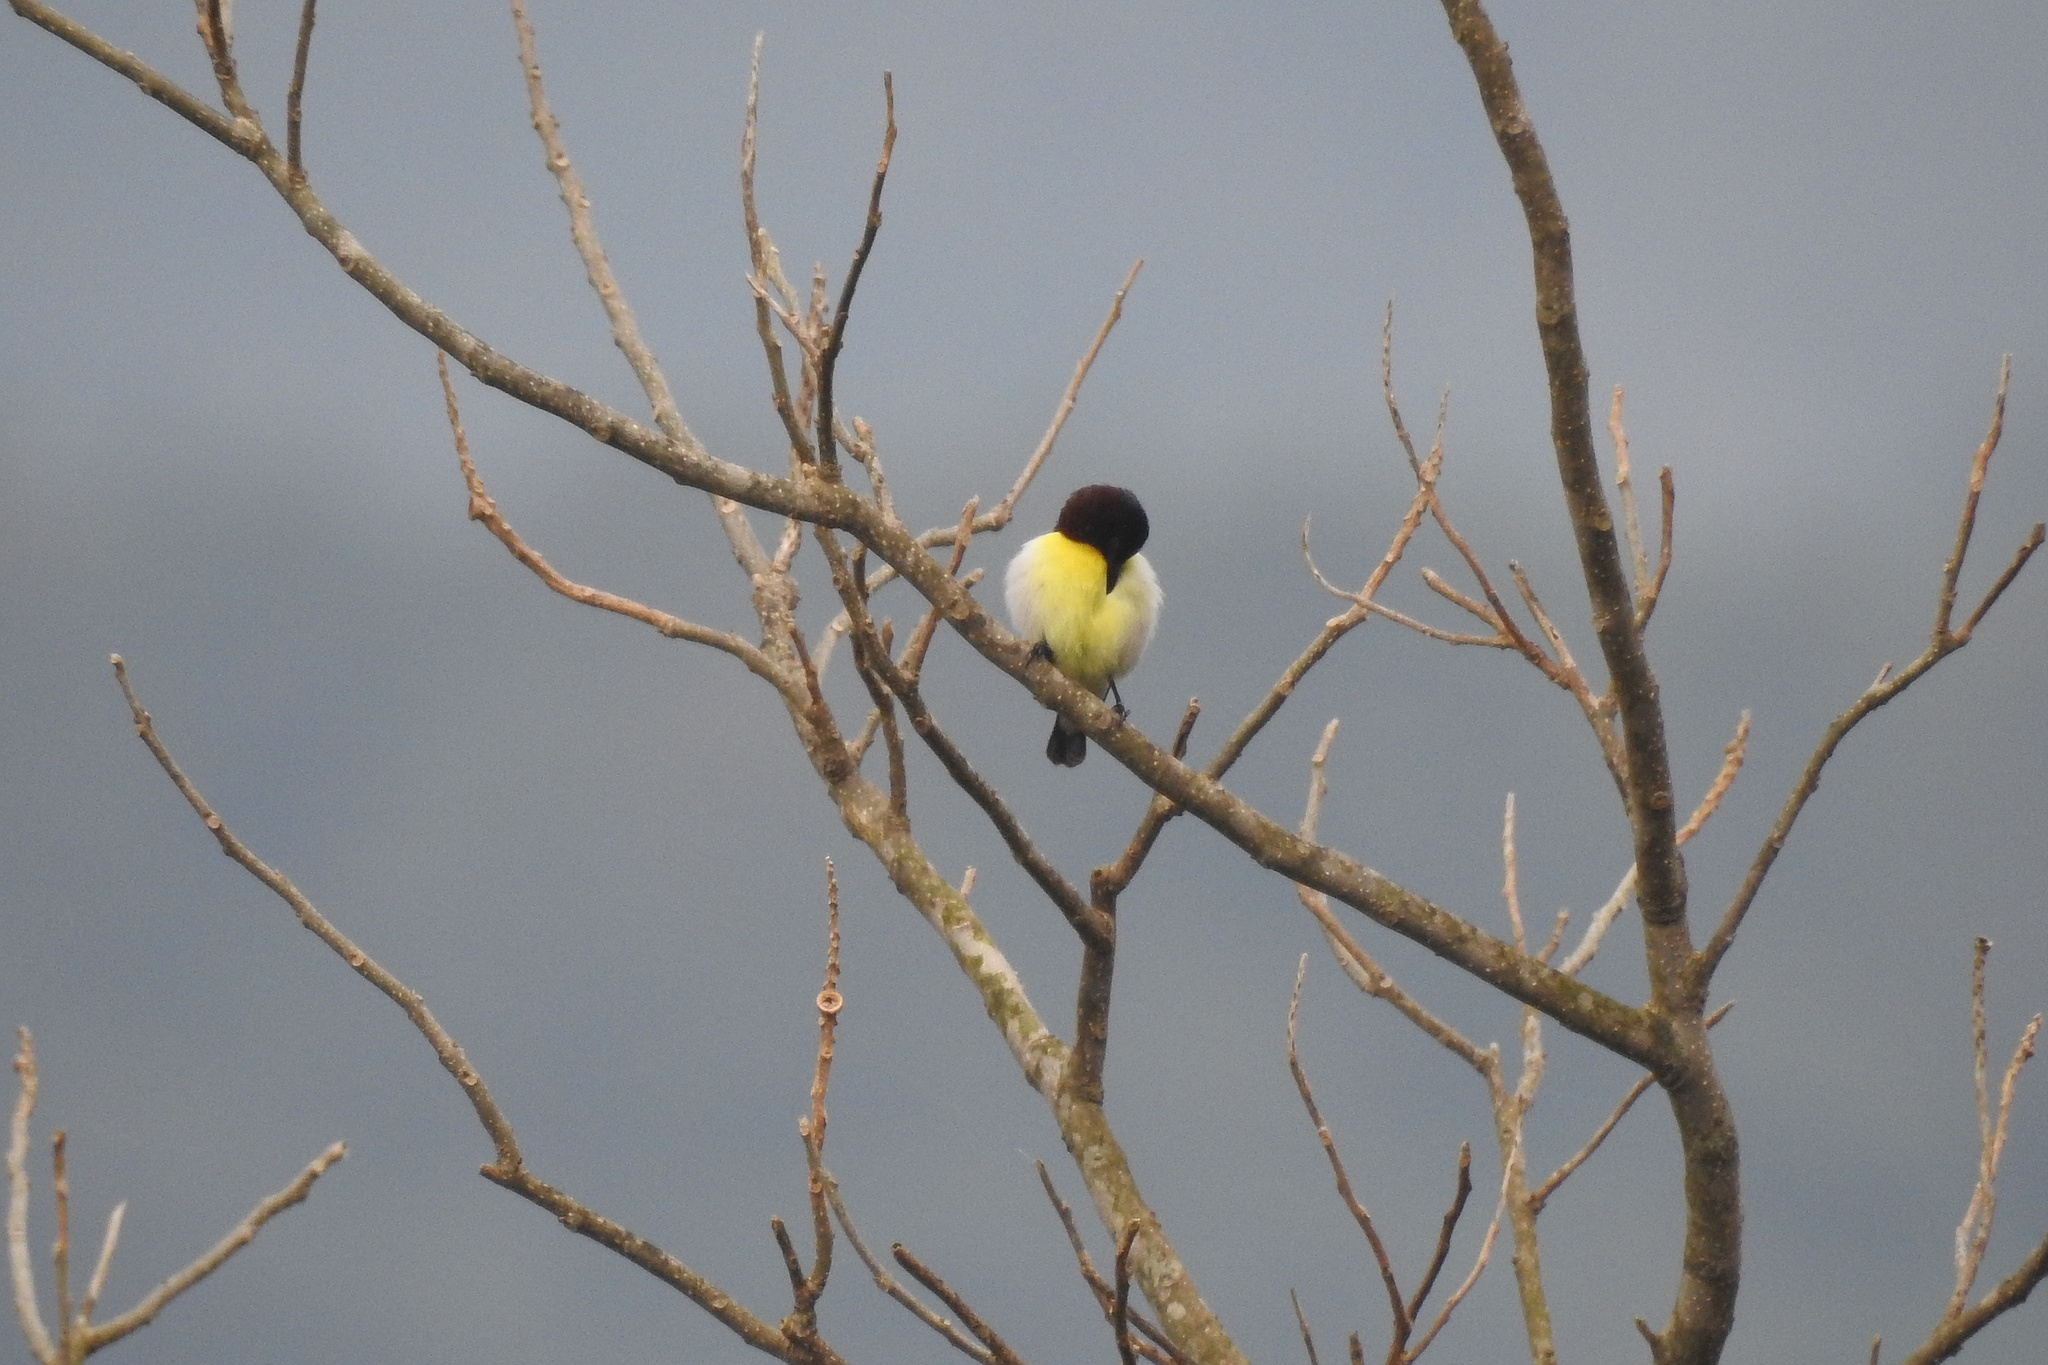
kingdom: Animalia
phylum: Chordata
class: Aves
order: Passeriformes
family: Nectariniidae
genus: Leptocoma
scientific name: Leptocoma zeylonica
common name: Purple-rumped sunbird
